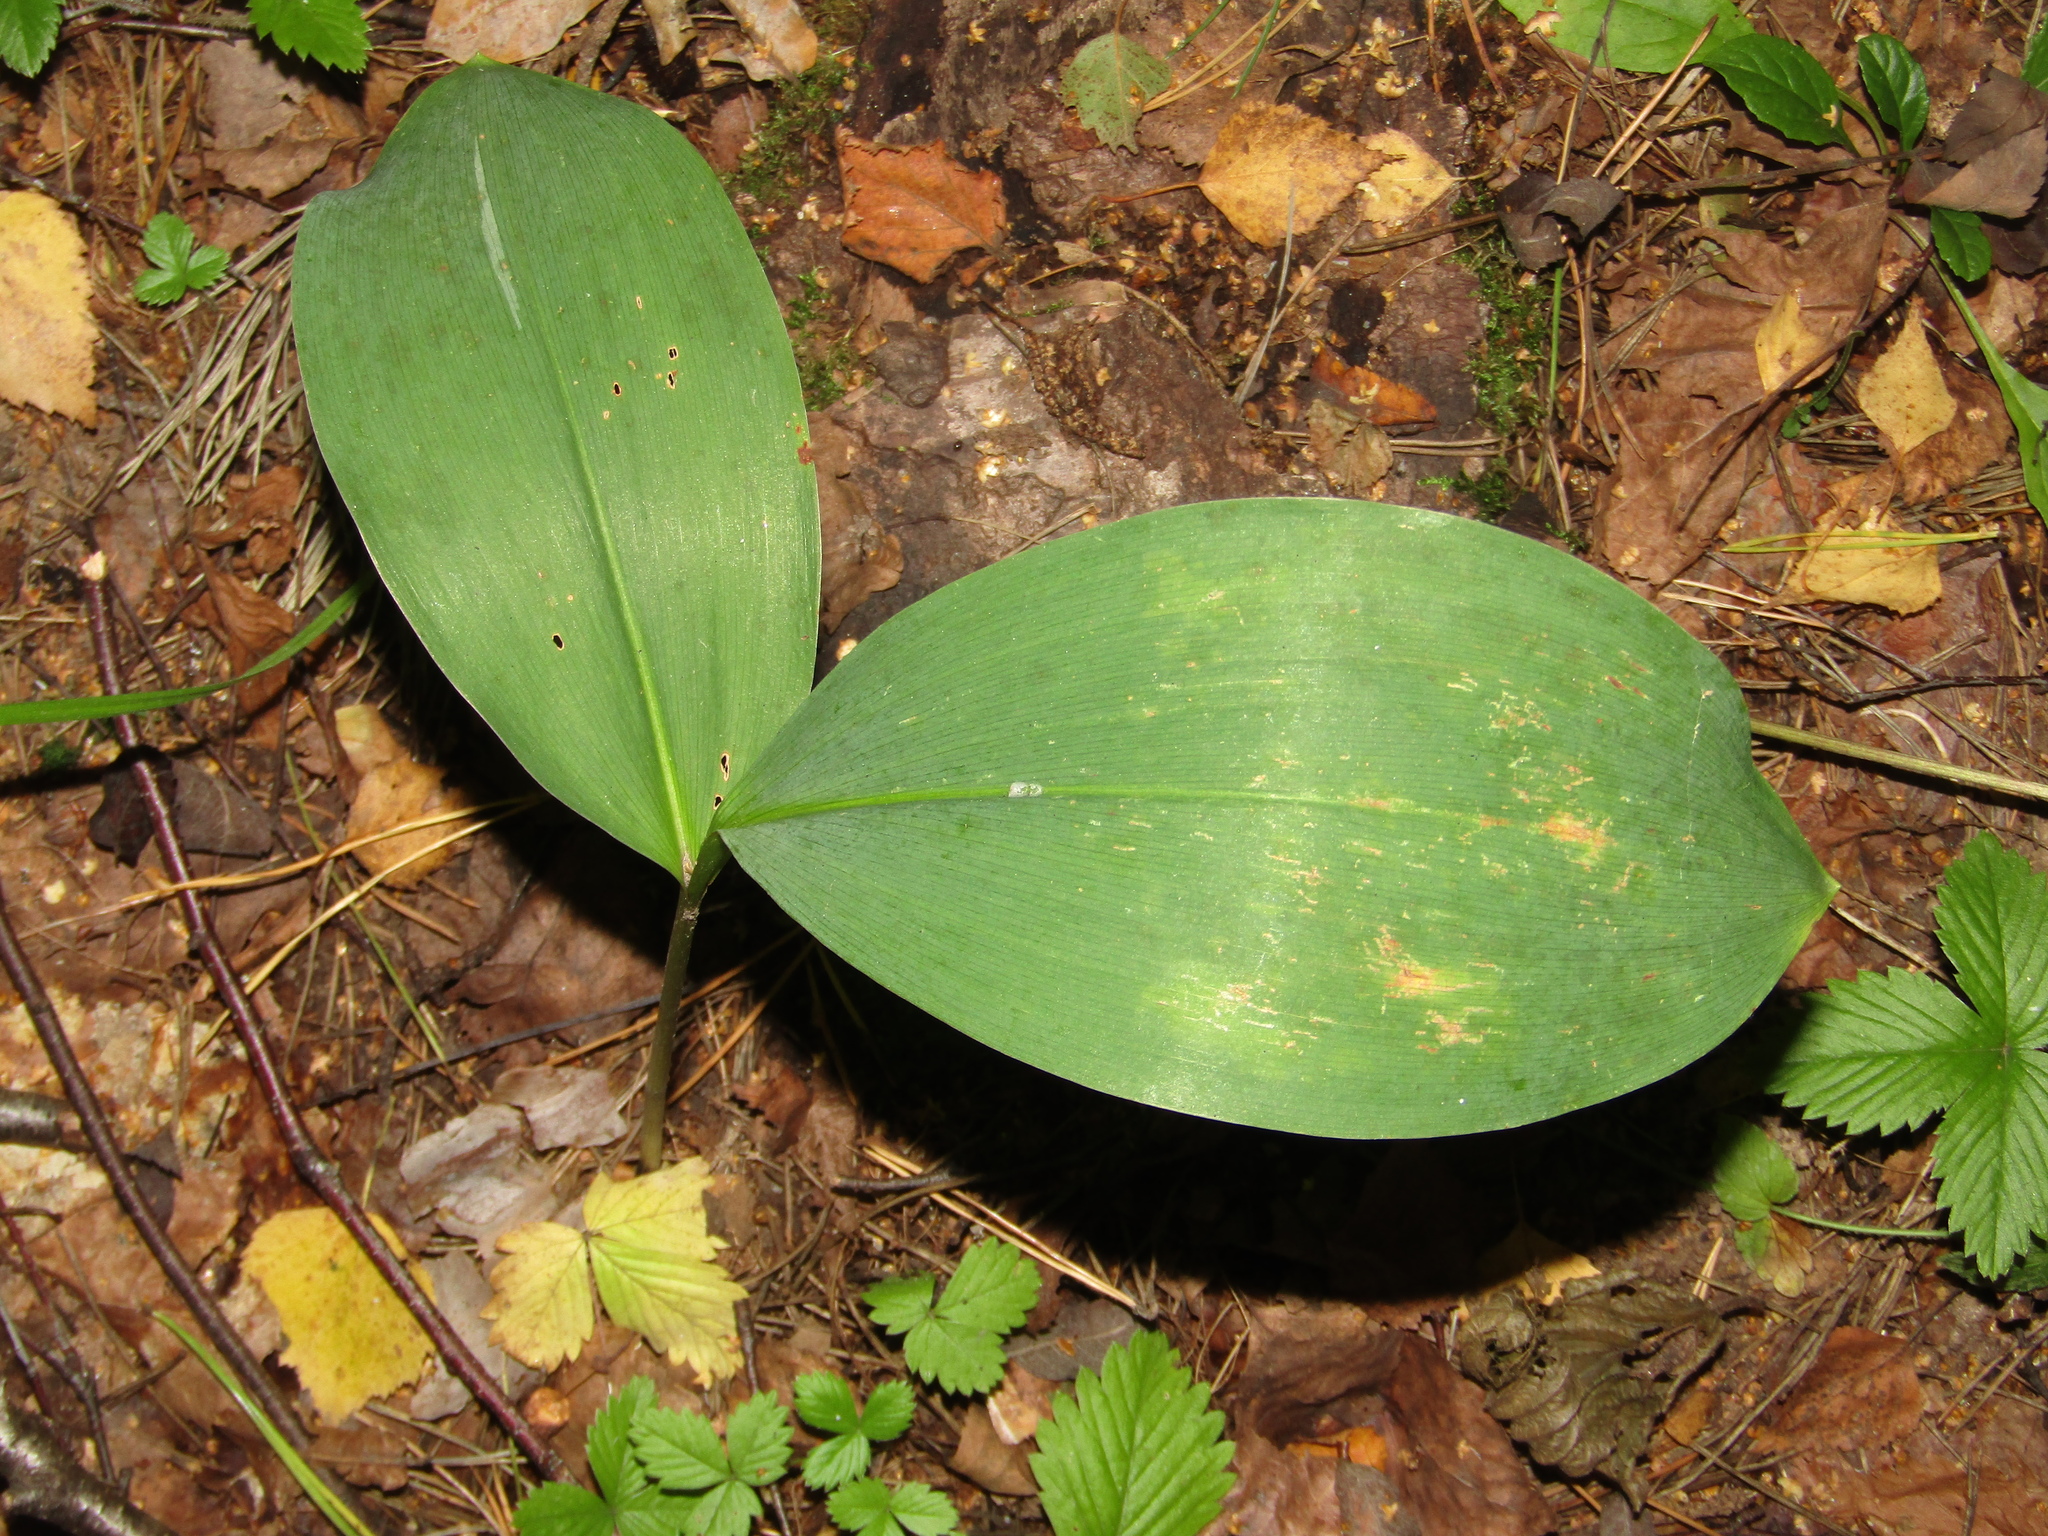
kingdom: Plantae
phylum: Tracheophyta
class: Liliopsida
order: Asparagales
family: Asparagaceae
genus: Convallaria
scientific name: Convallaria majalis
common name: Lily-of-the-valley
